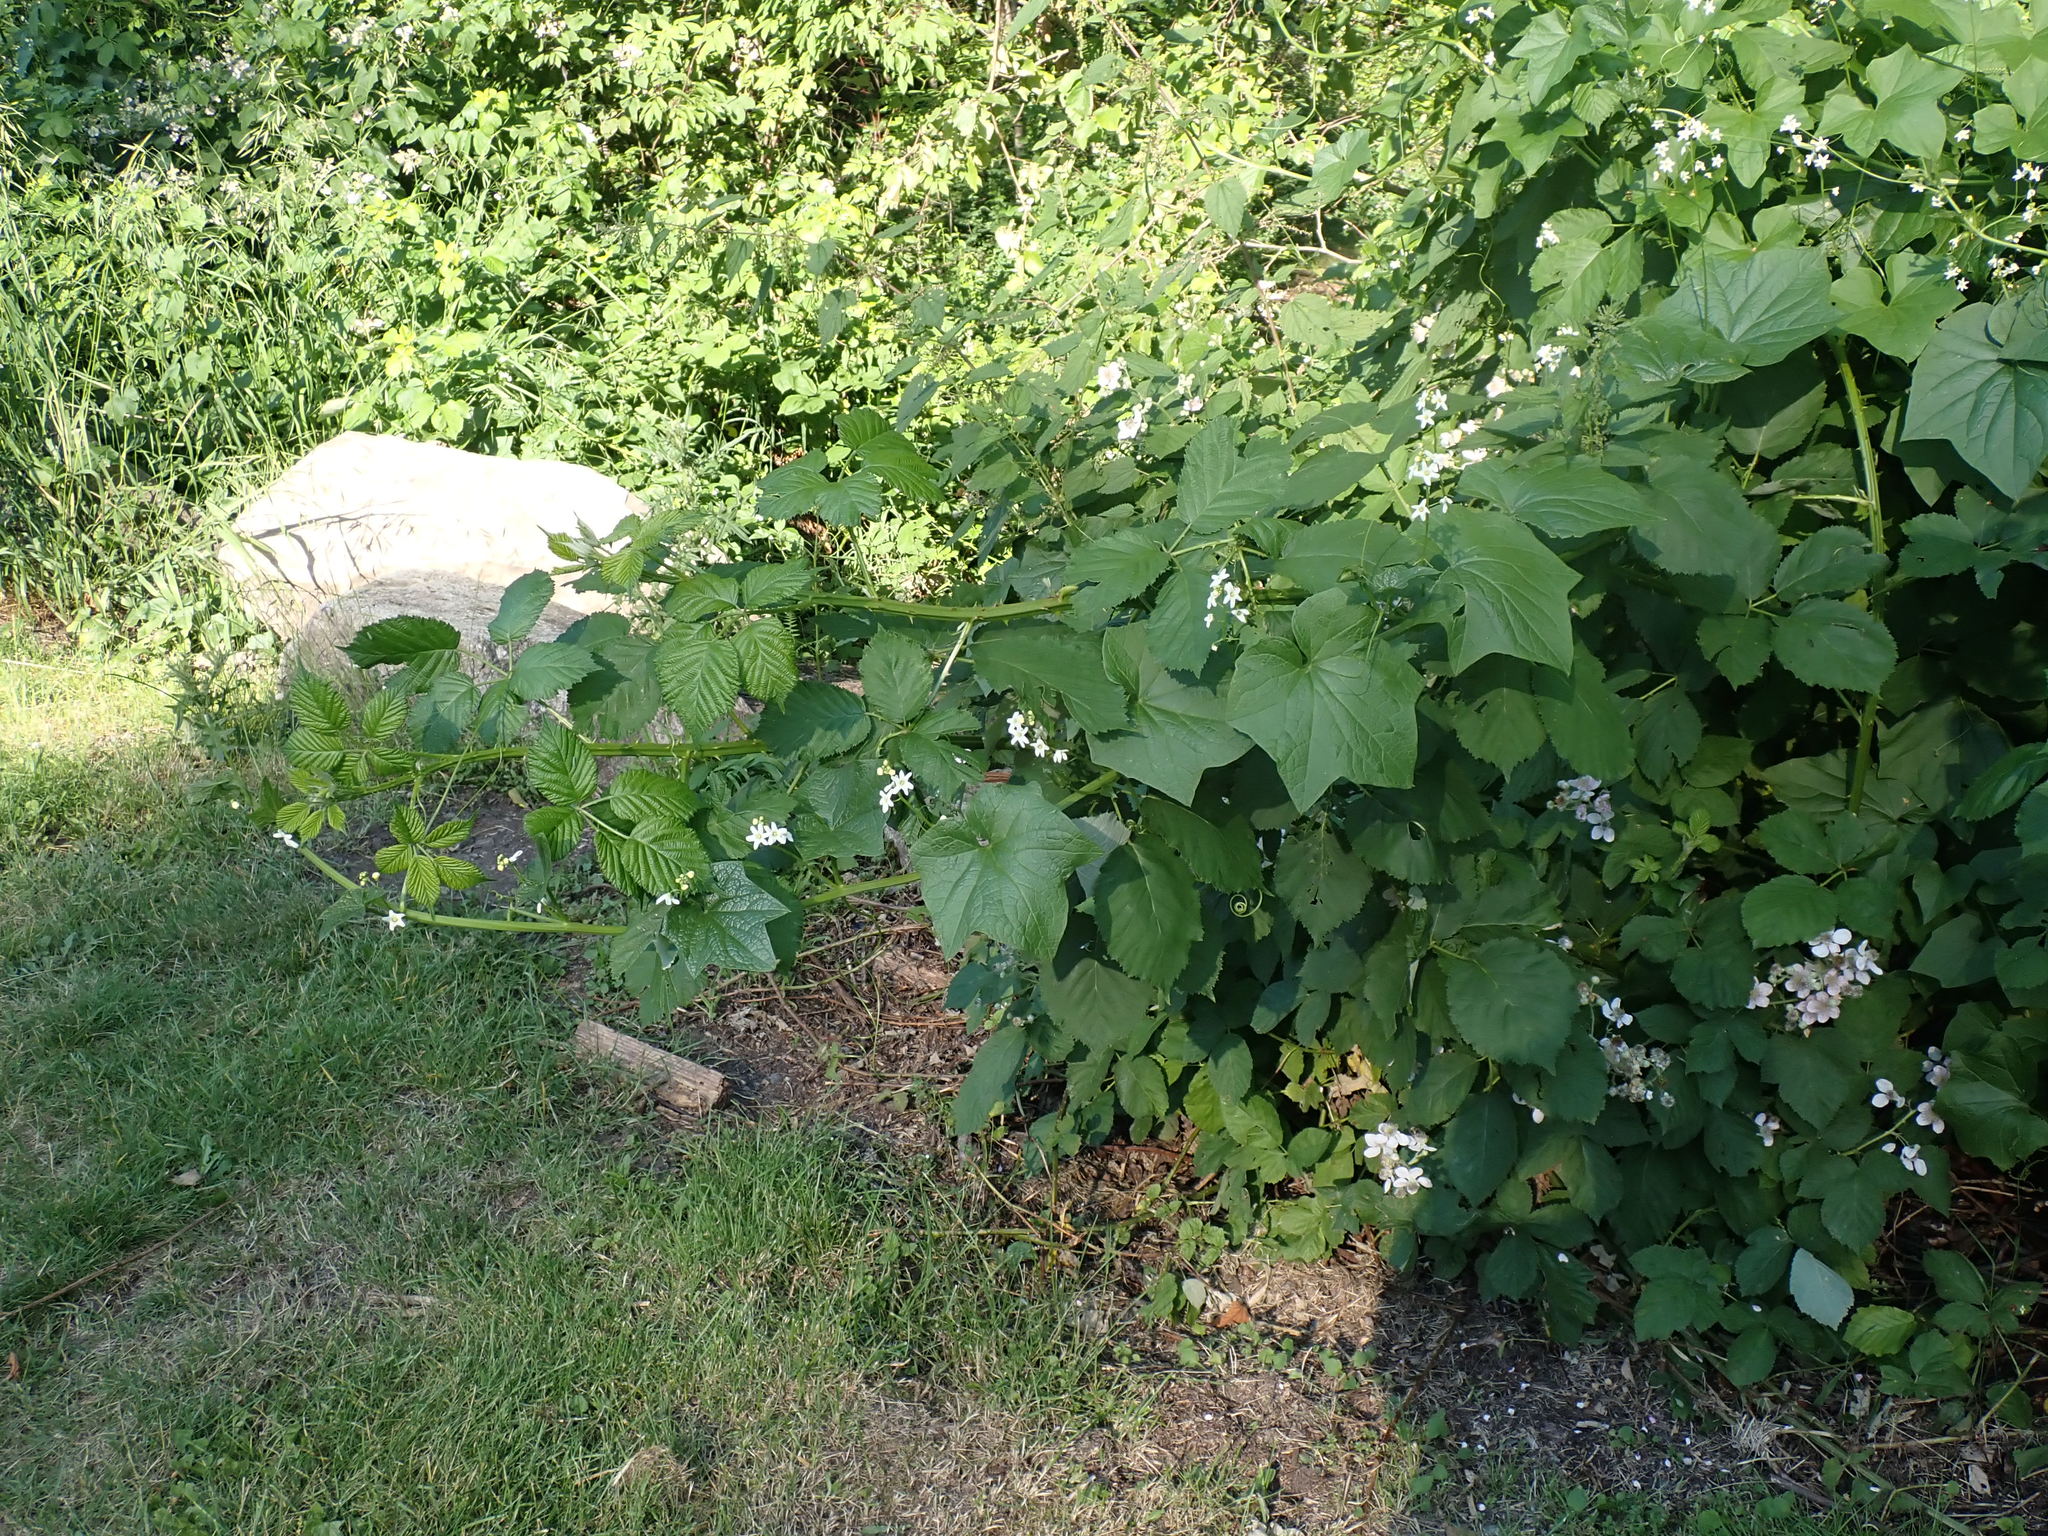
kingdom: Plantae
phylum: Tracheophyta
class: Magnoliopsida
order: Cucurbitales
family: Cucurbitaceae
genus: Marah
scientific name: Marah oregana
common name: Coastal manroot
